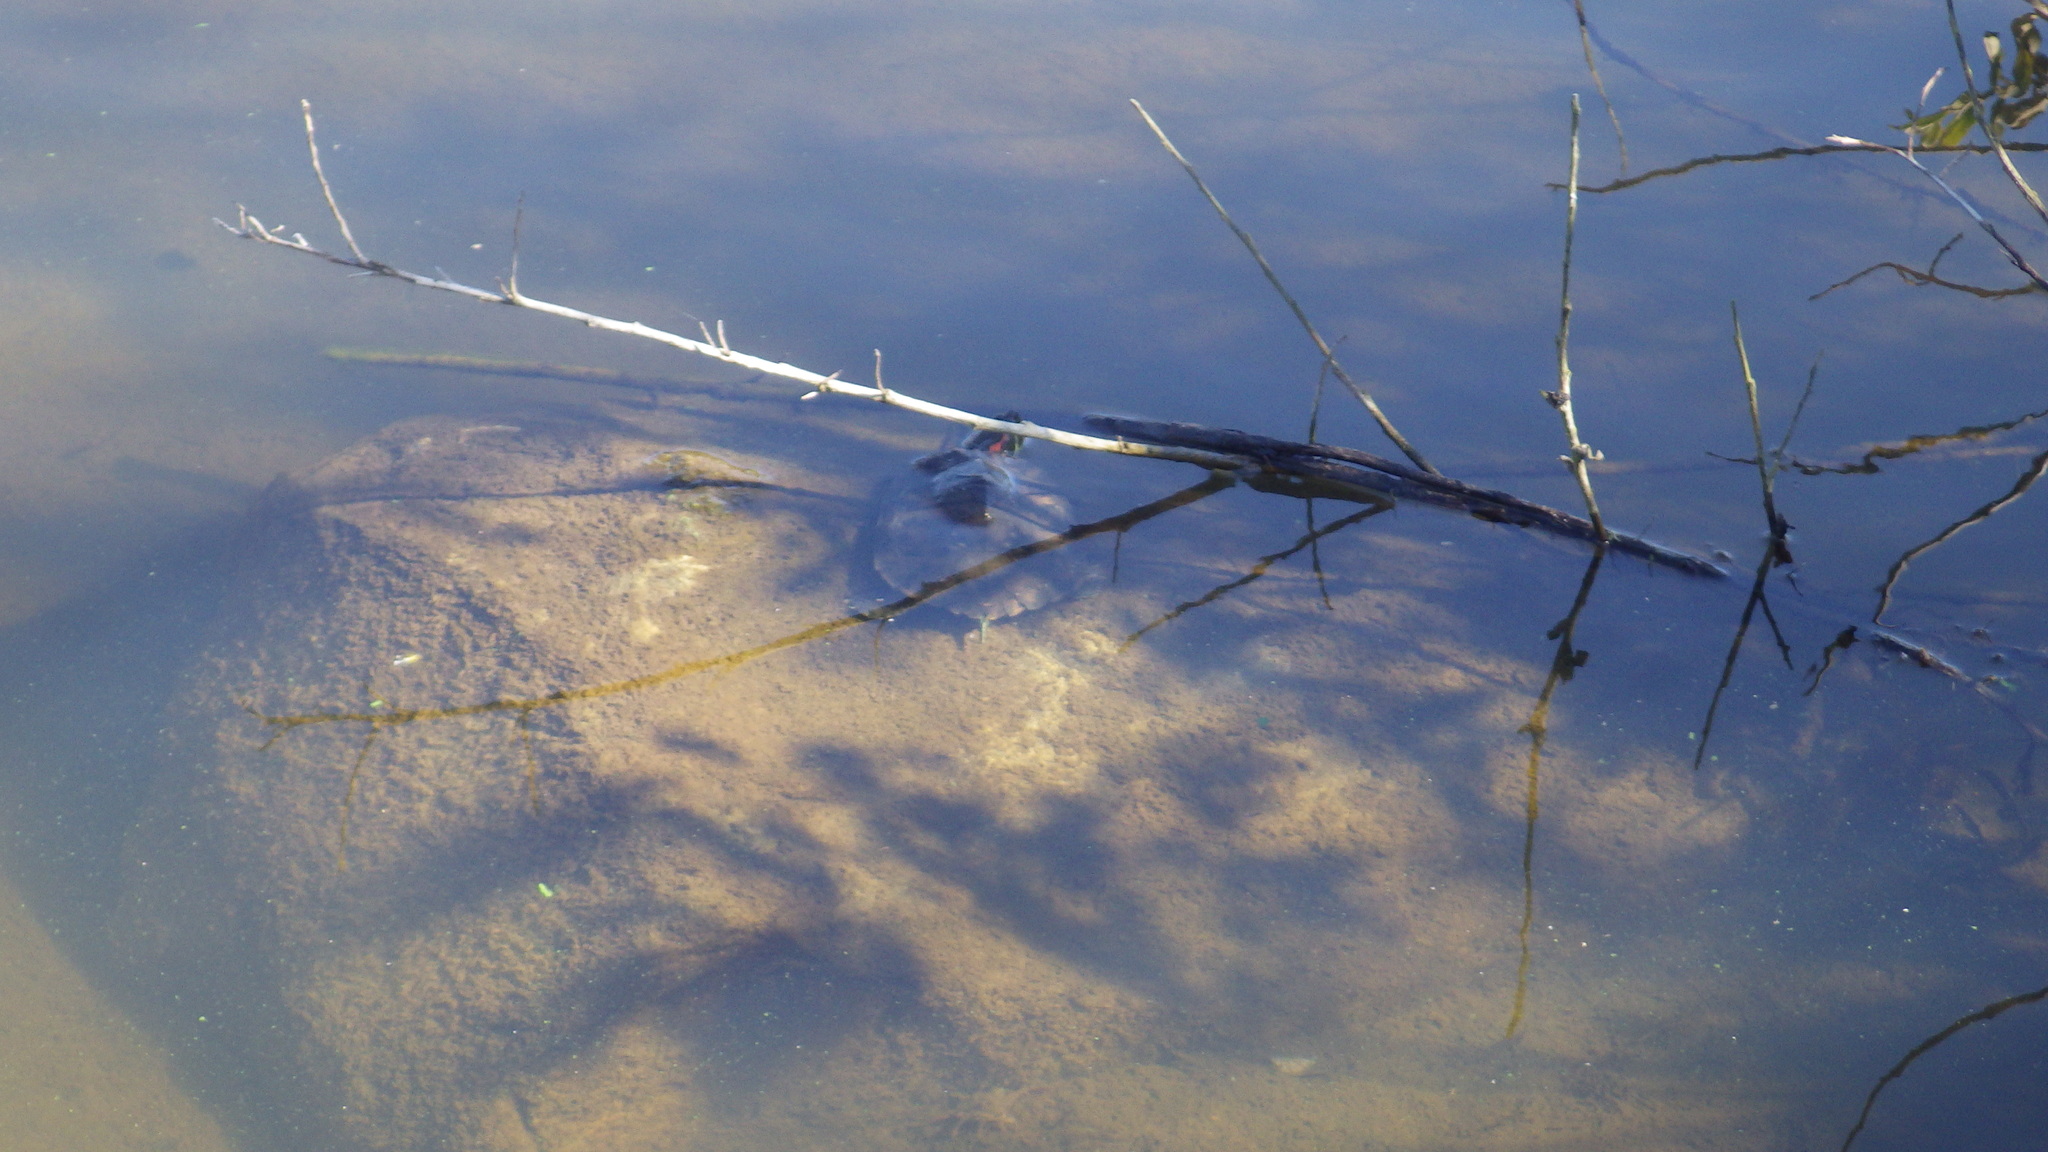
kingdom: Animalia
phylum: Chordata
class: Testudines
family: Emydidae
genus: Trachemys
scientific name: Trachemys scripta
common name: Slider
